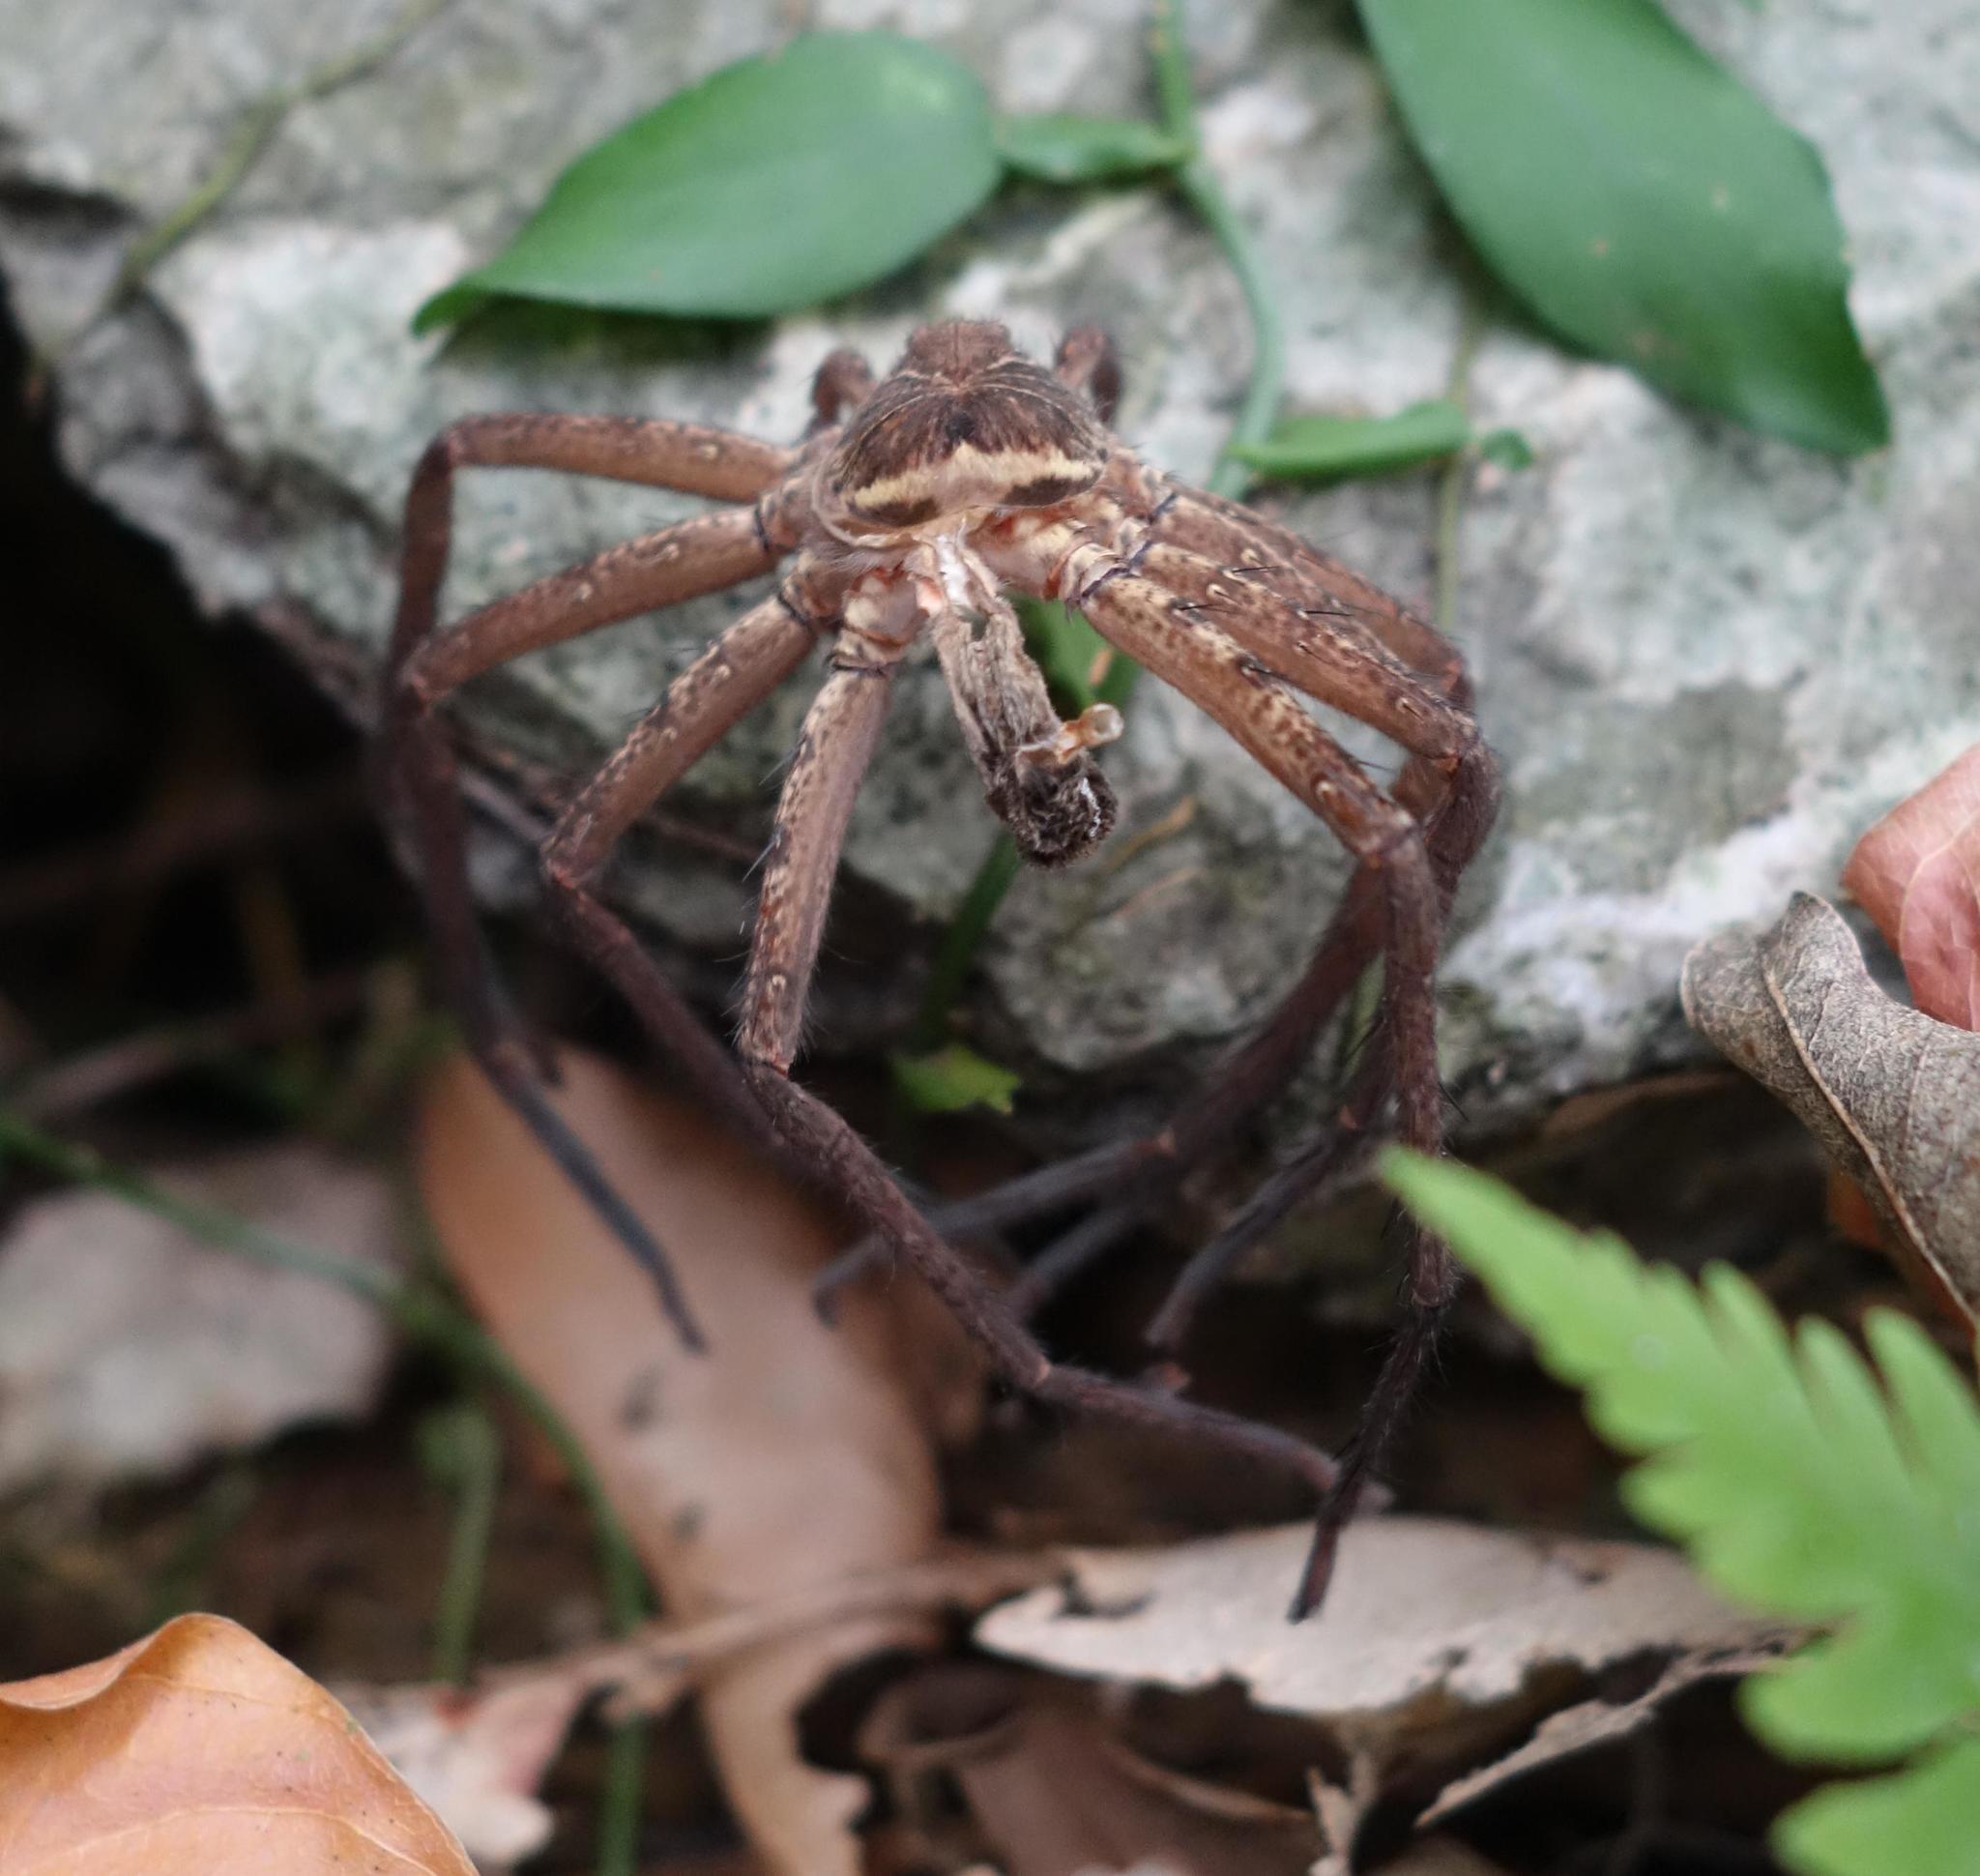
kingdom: Animalia
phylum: Arthropoda
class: Arachnida
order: Araneae
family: Sparassidae
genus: Heteropoda
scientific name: Heteropoda venatoria
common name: Huntsman spider
